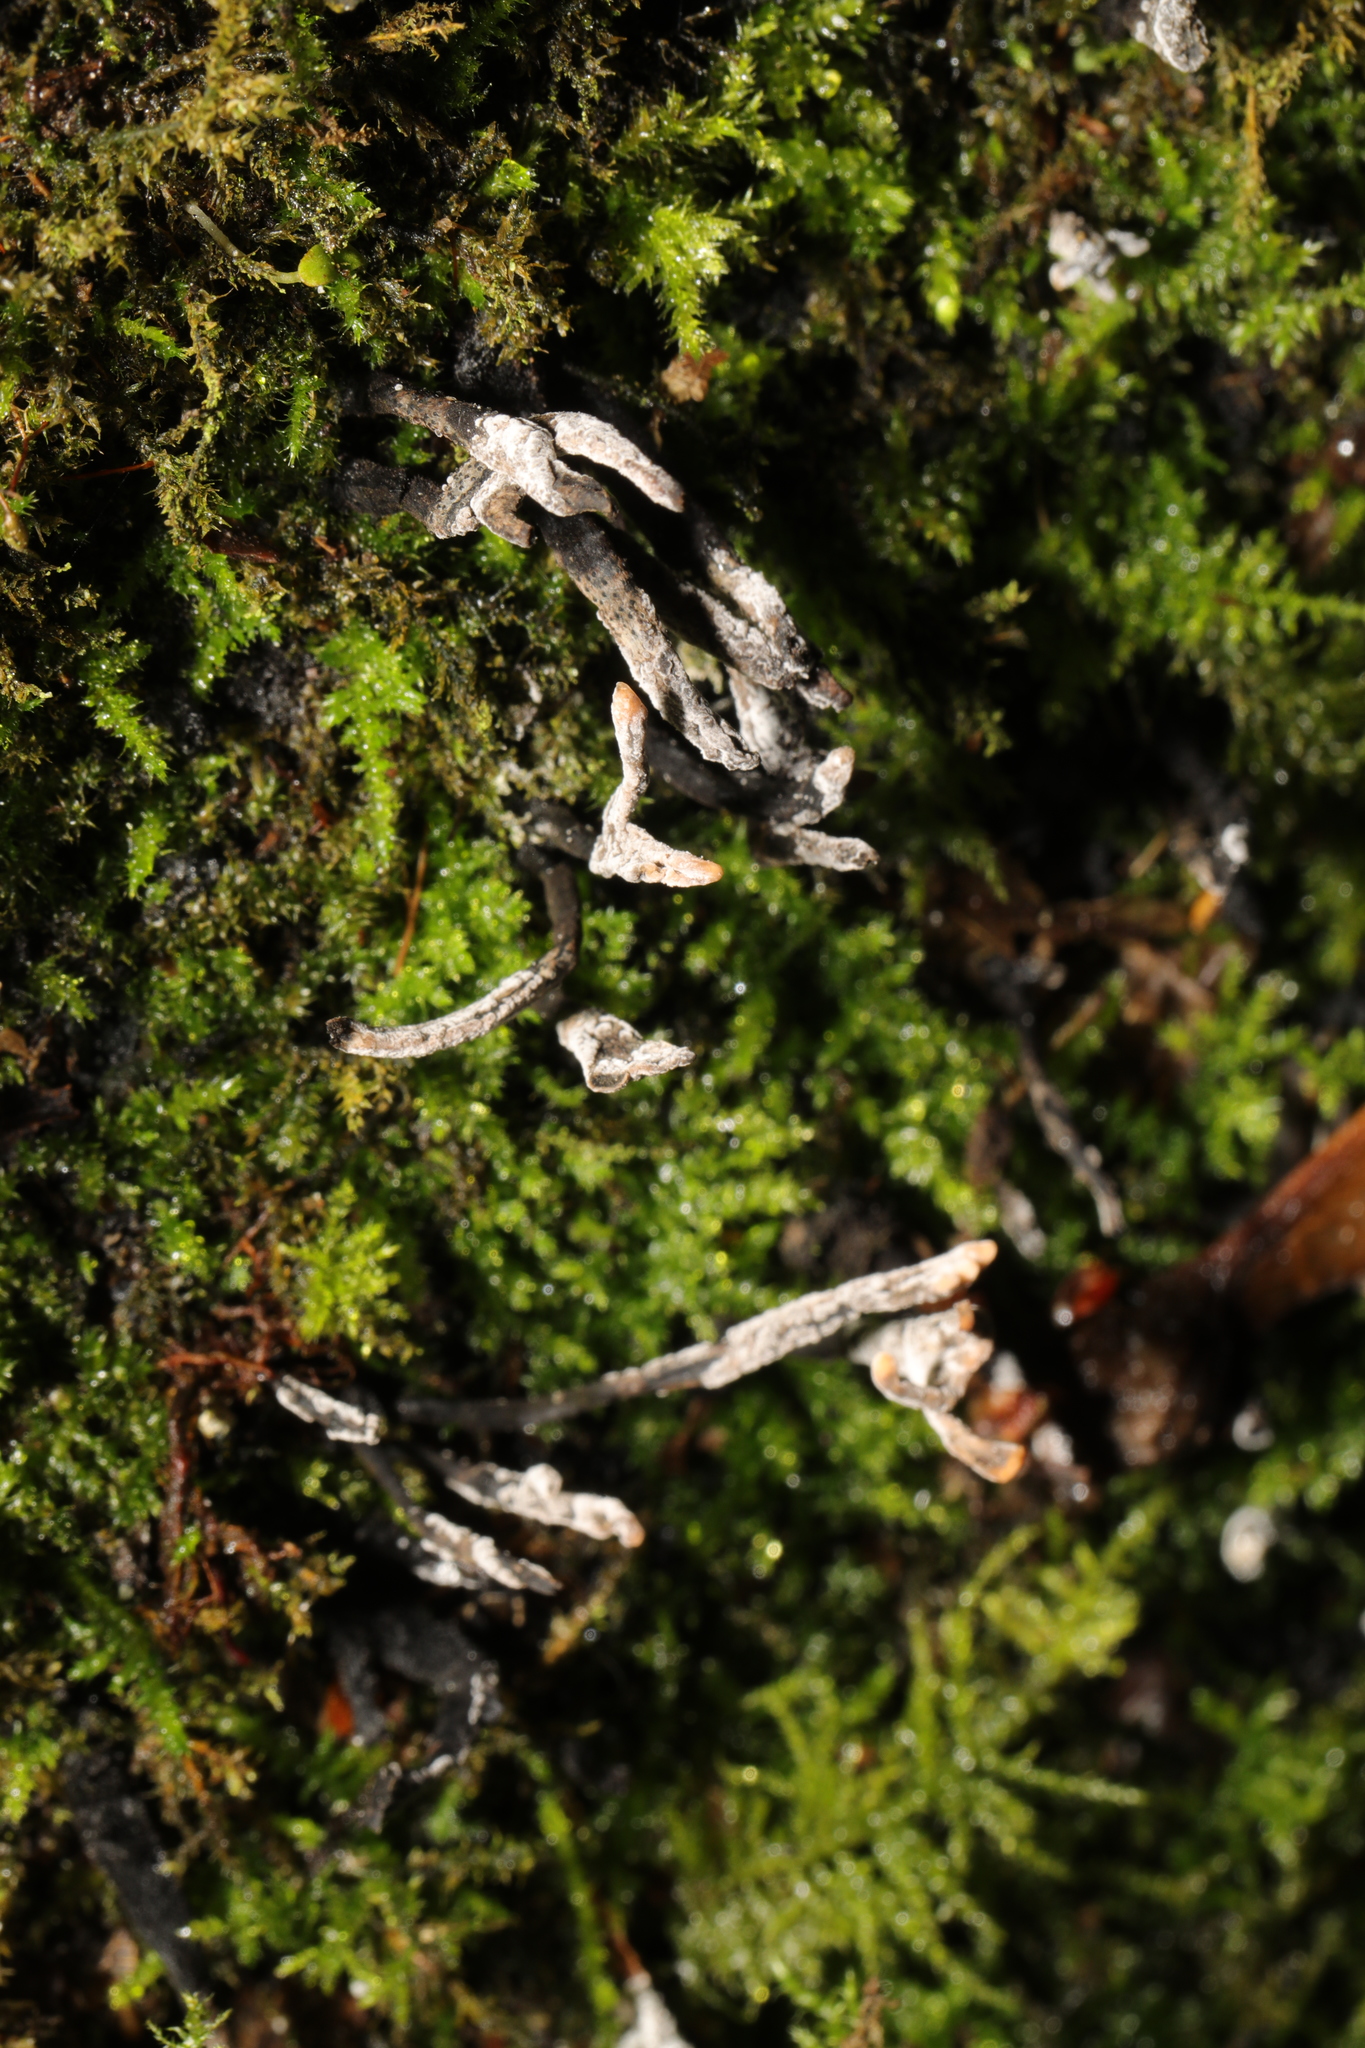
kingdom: Fungi
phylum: Ascomycota
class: Sordariomycetes
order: Xylariales
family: Xylariaceae
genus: Xylaria
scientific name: Xylaria hypoxylon
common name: Candle-snuff fungus
